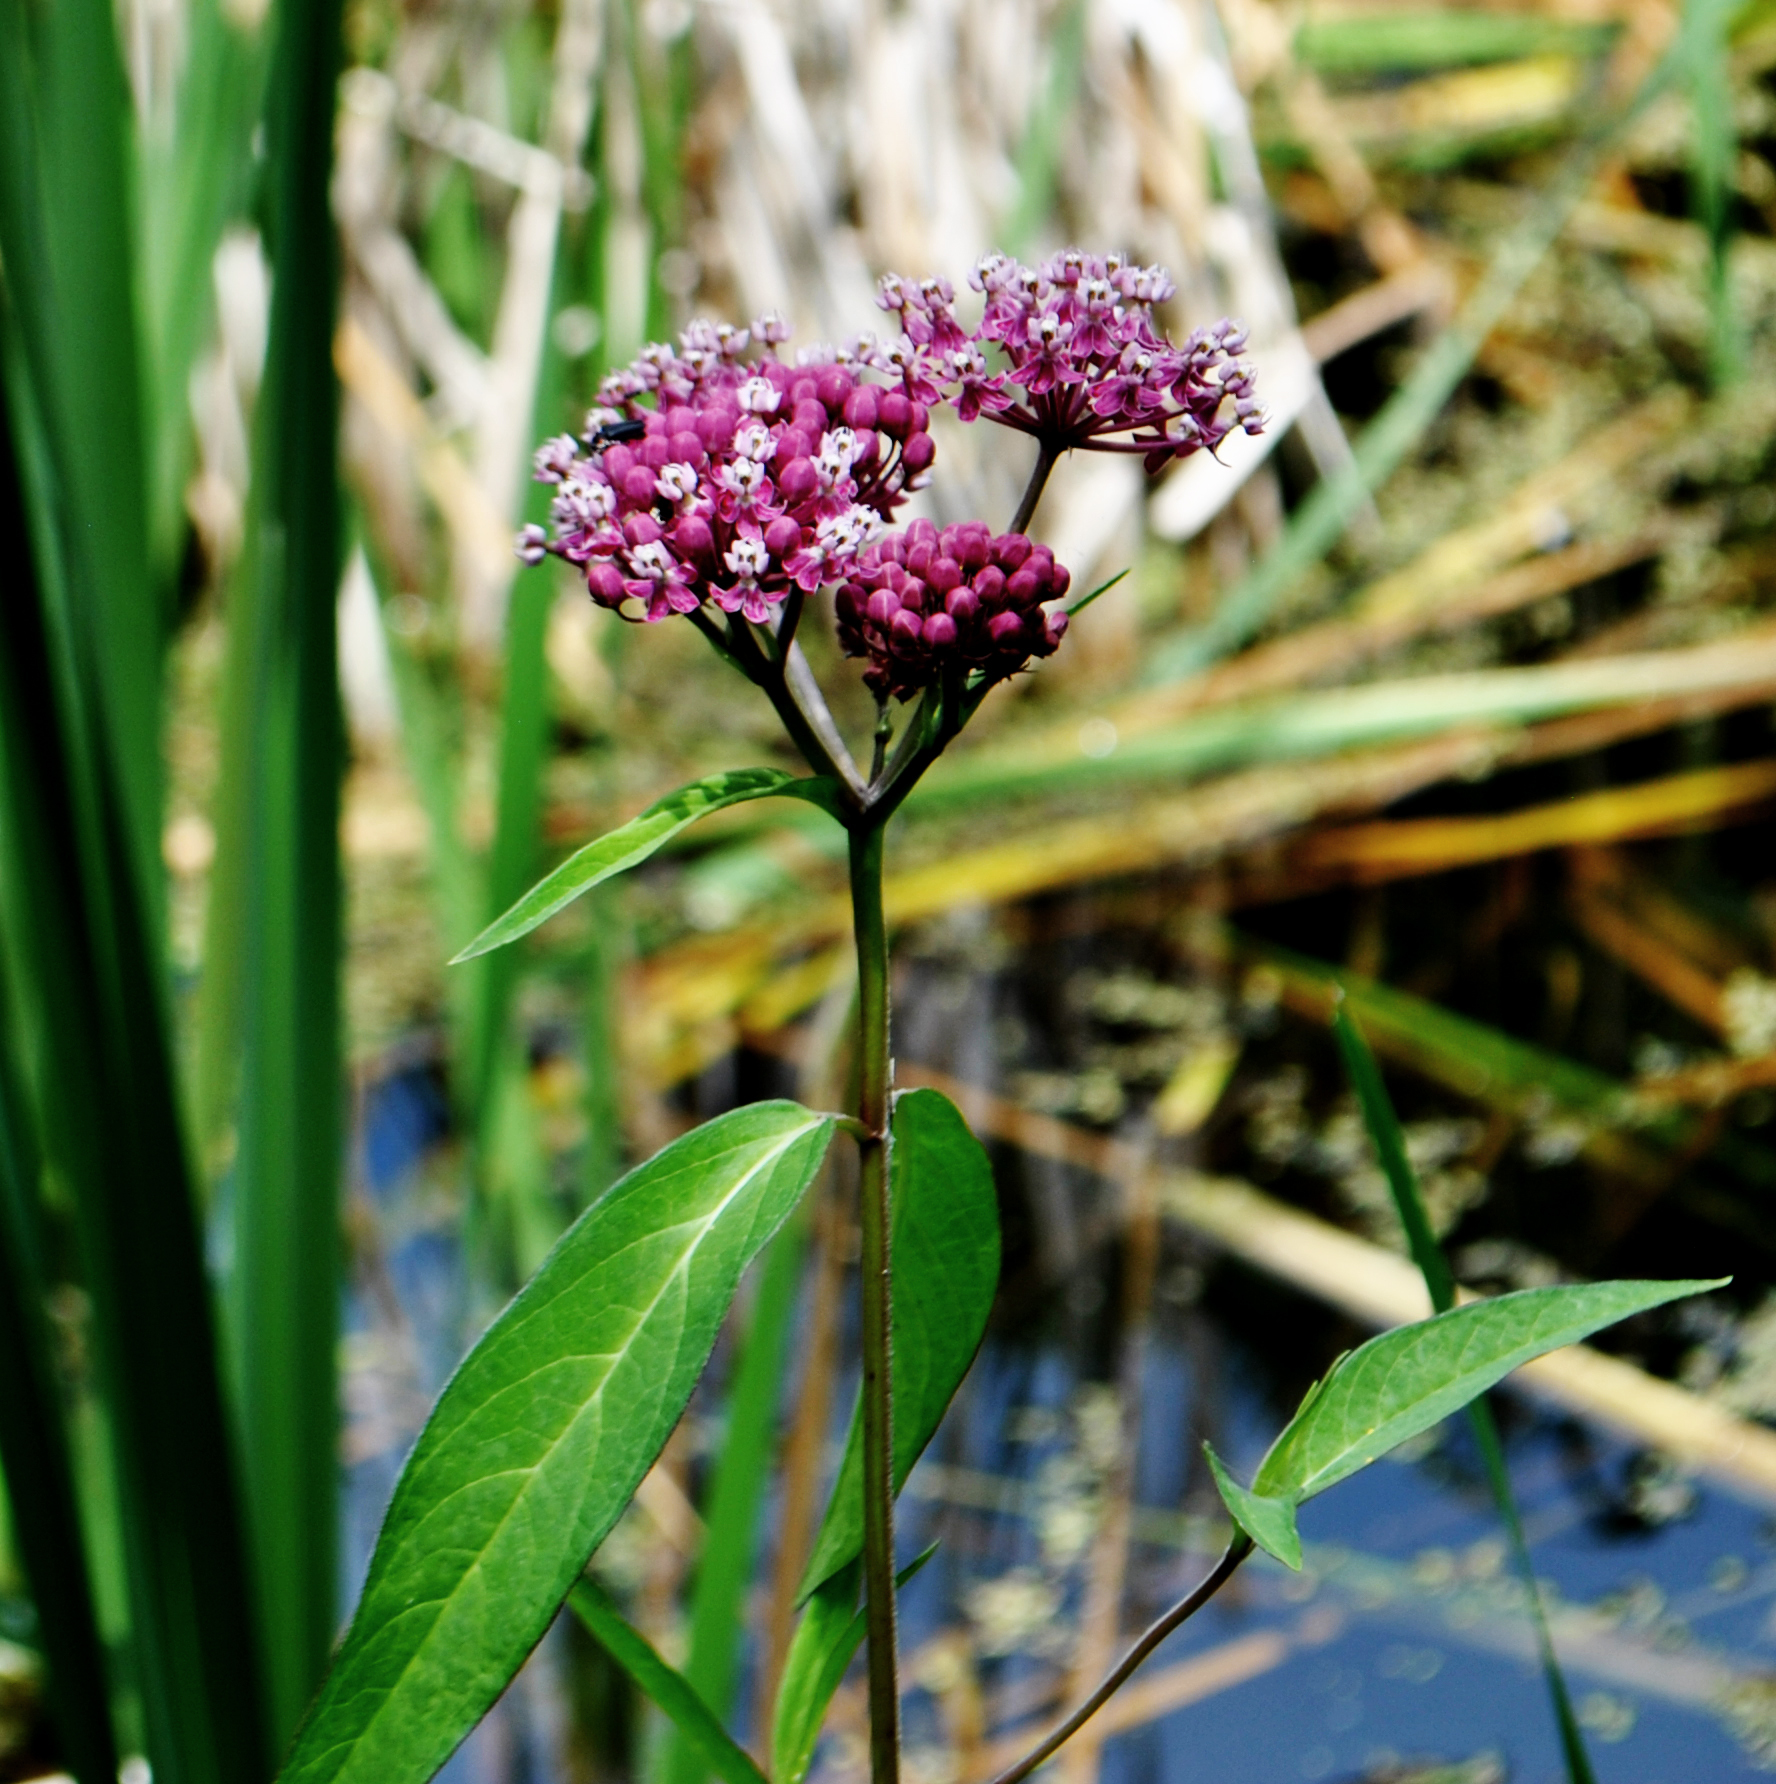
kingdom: Plantae
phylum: Tracheophyta
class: Magnoliopsida
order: Gentianales
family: Apocynaceae
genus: Asclepias
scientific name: Asclepias incarnata
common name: Swamp milkweed
